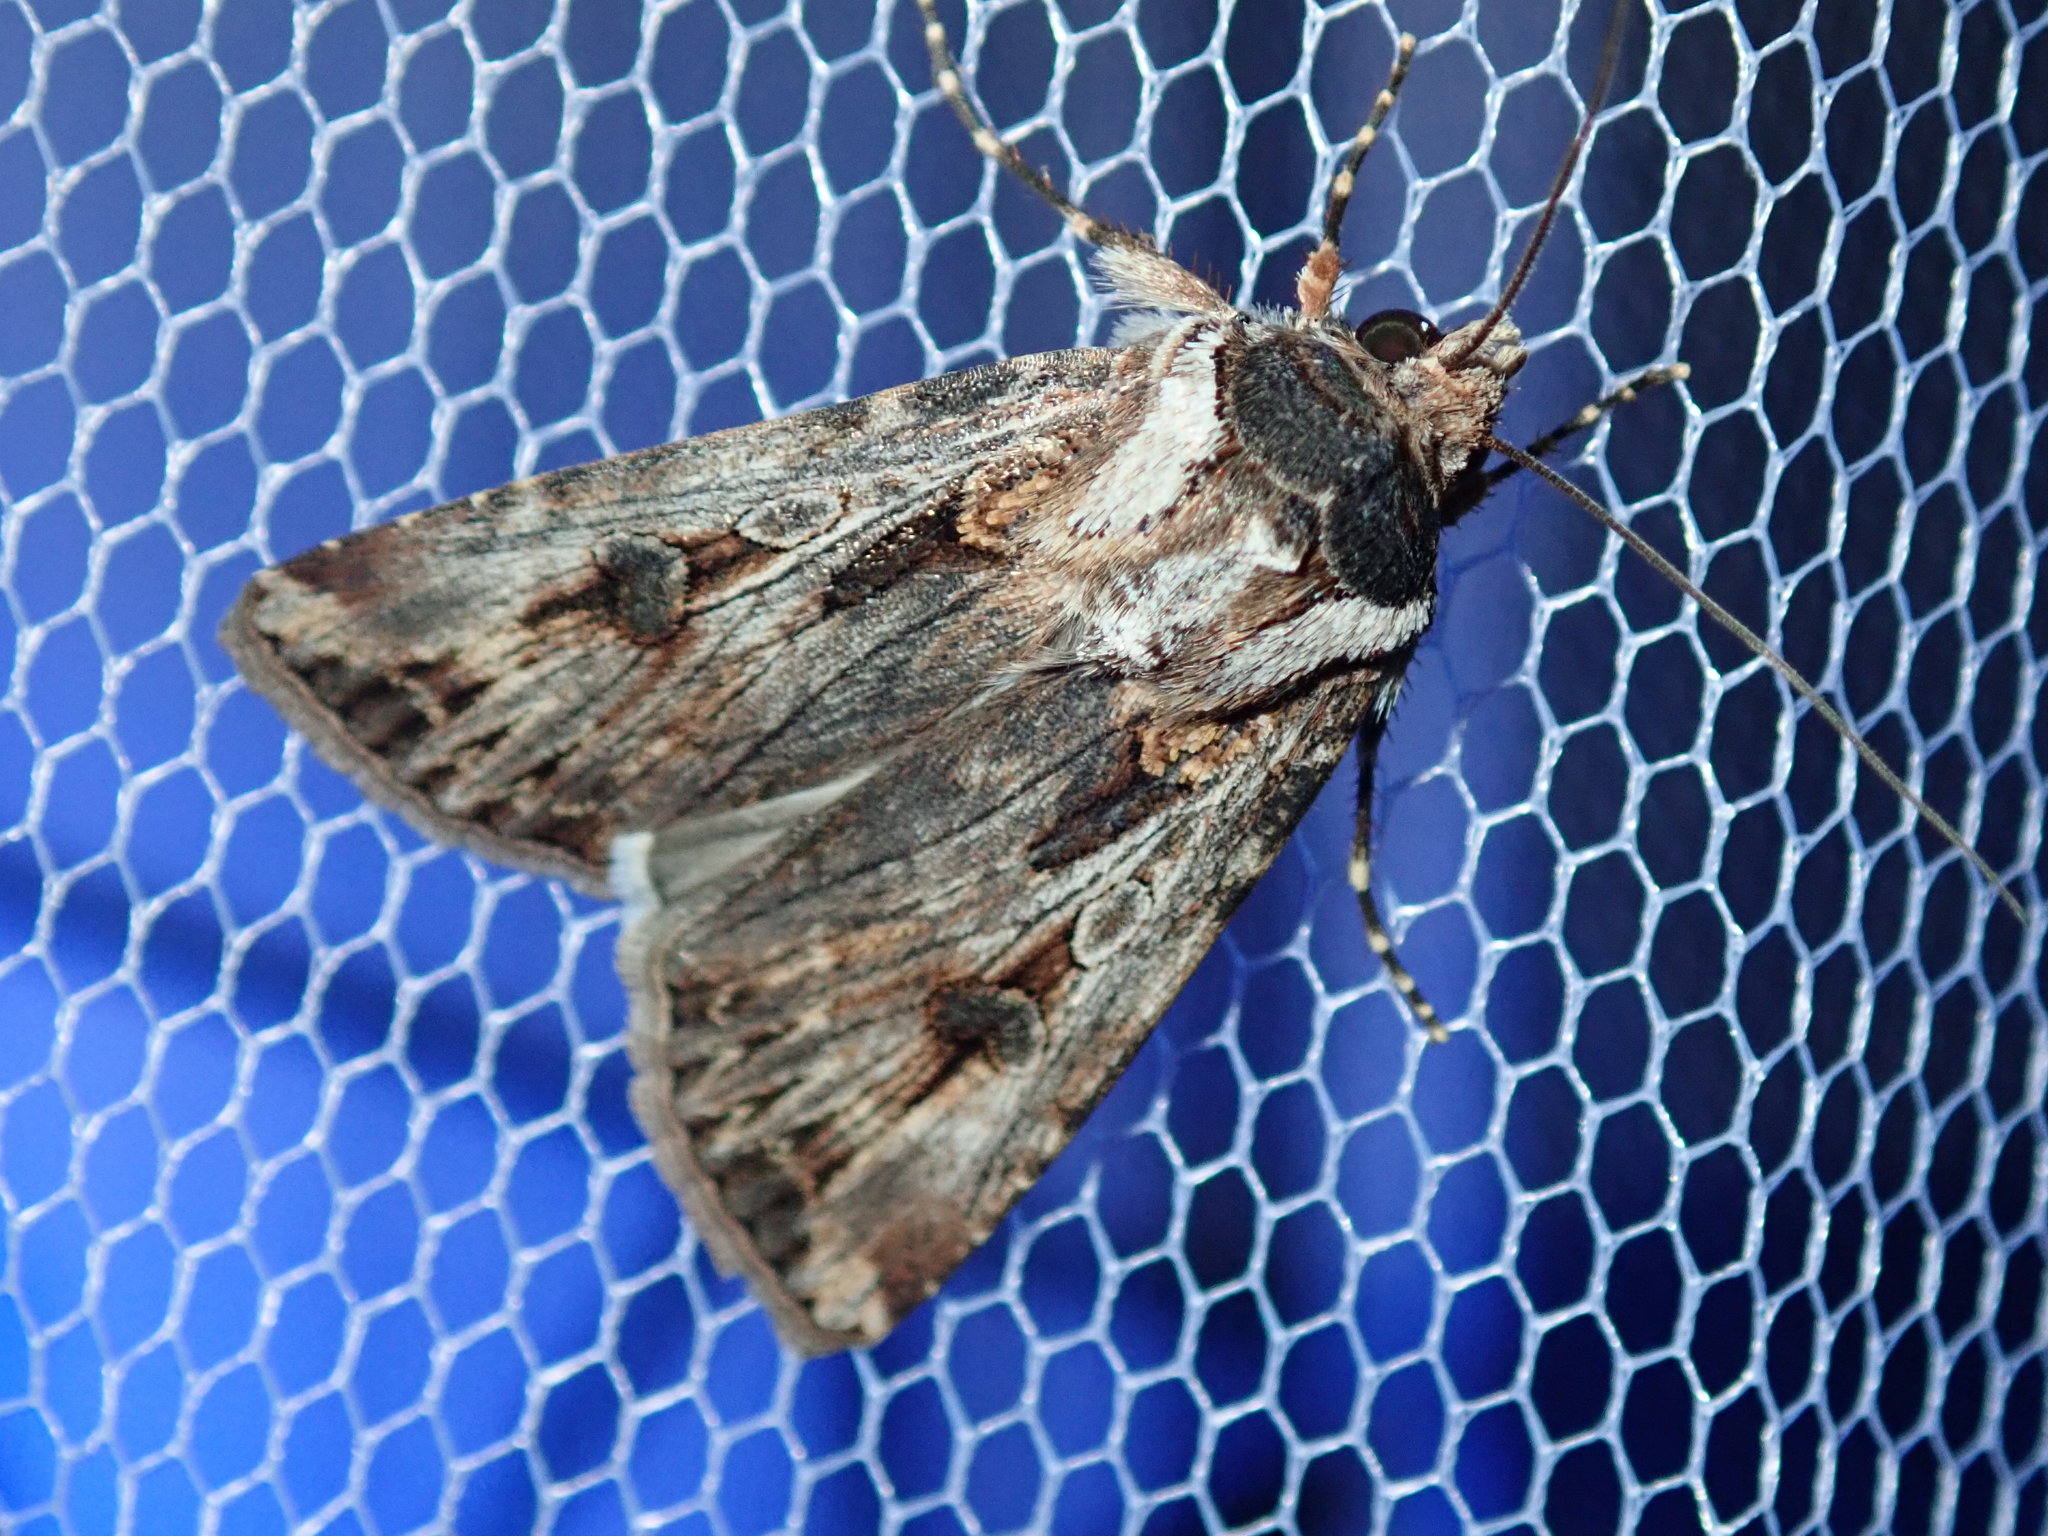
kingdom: Animalia
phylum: Arthropoda
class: Insecta
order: Lepidoptera
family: Noctuidae
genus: Agrotis
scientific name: Agrotis munda
